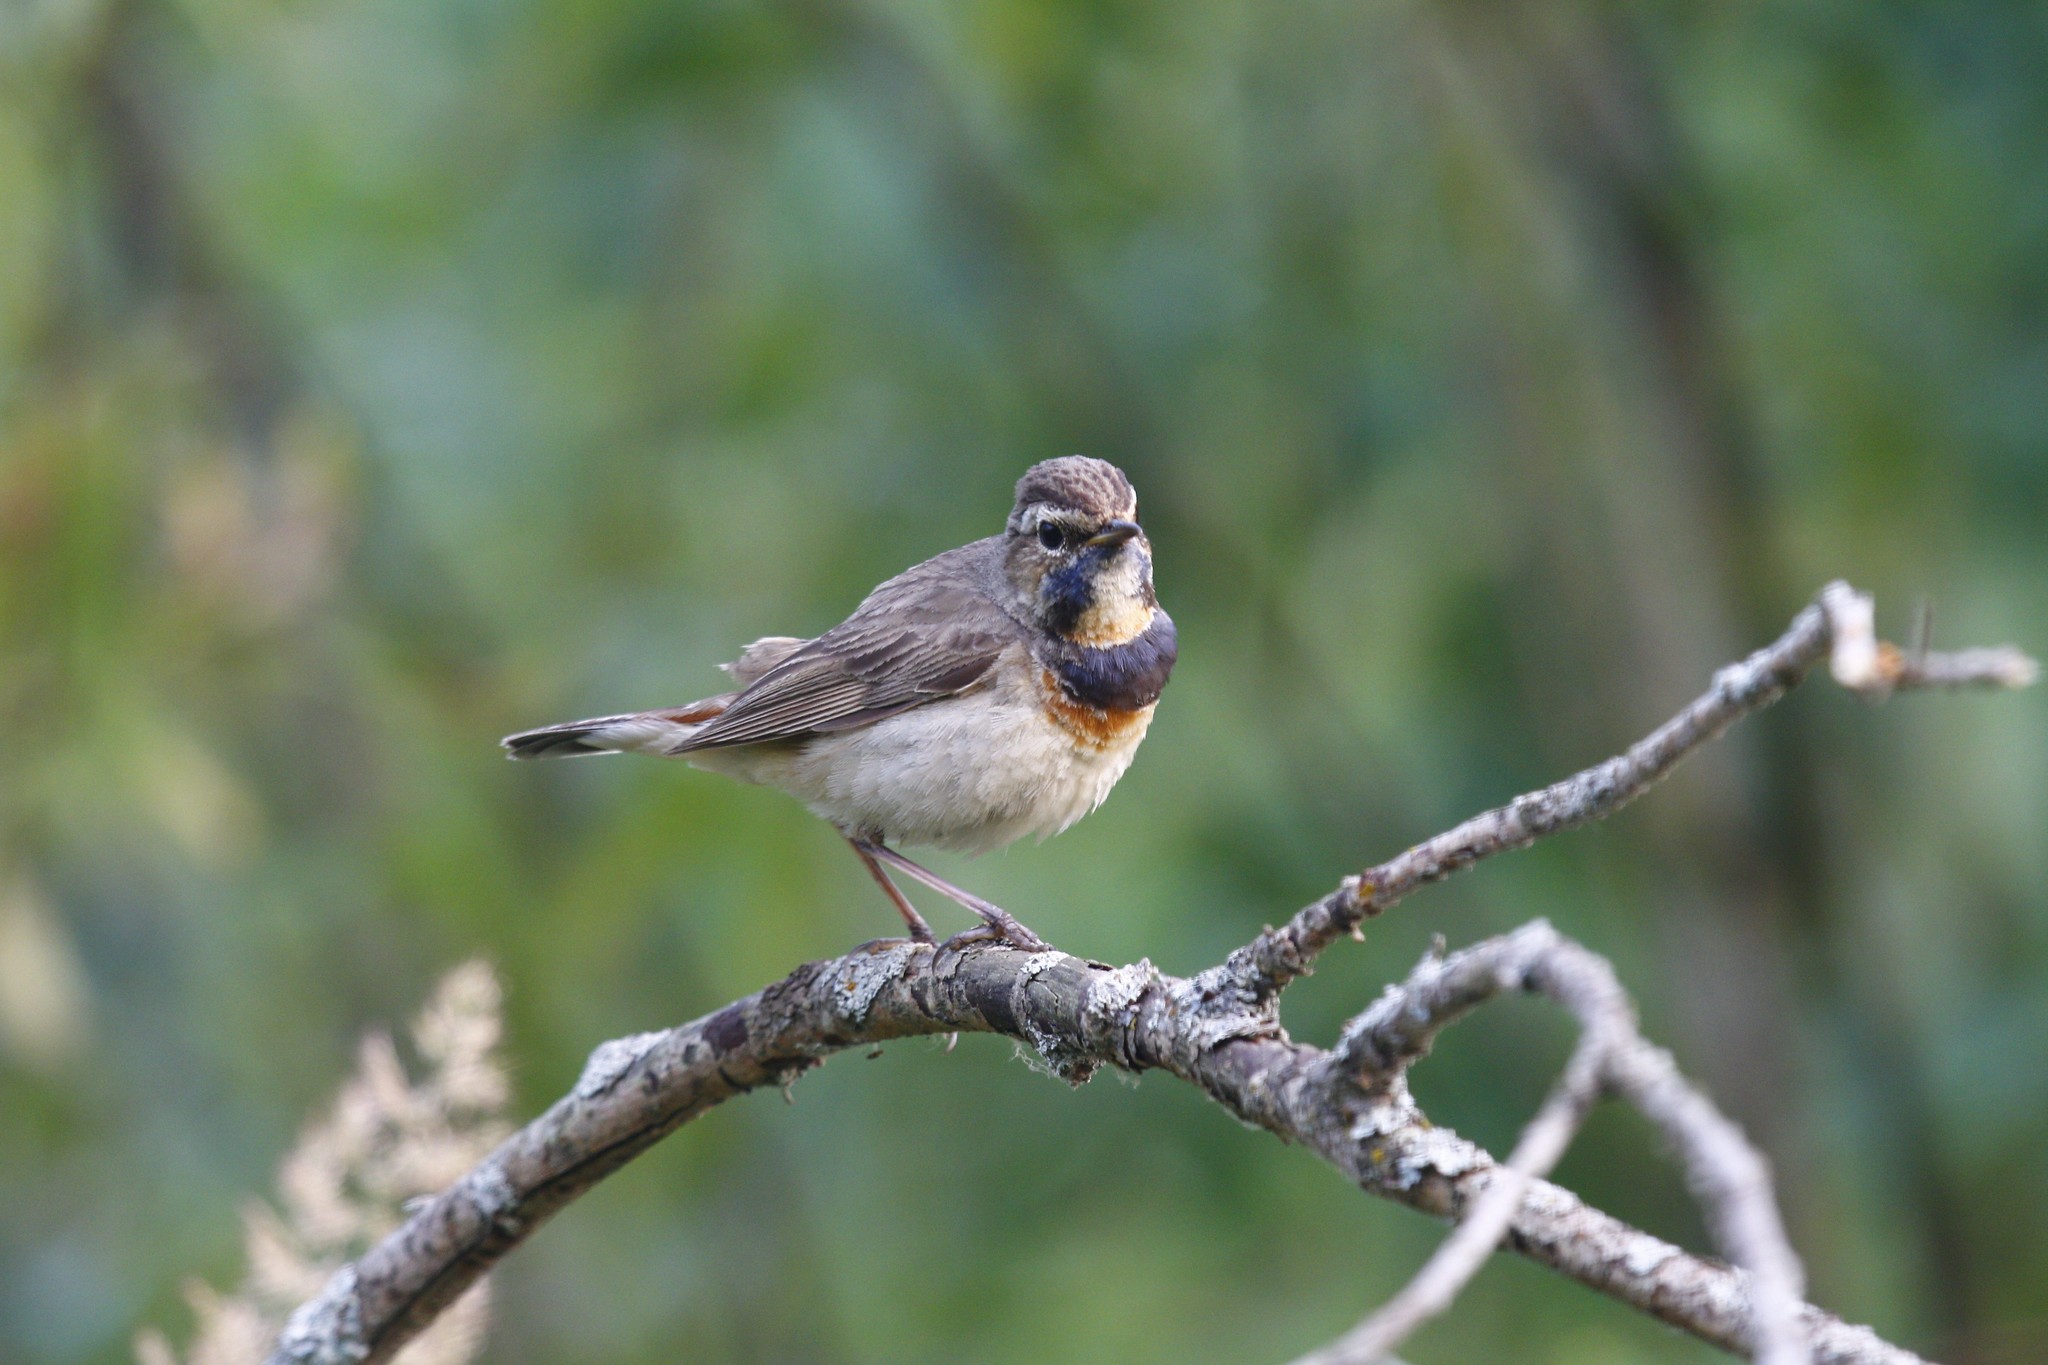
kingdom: Animalia
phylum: Chordata
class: Aves
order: Passeriformes
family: Muscicapidae
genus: Luscinia
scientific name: Luscinia svecica
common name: Bluethroat
